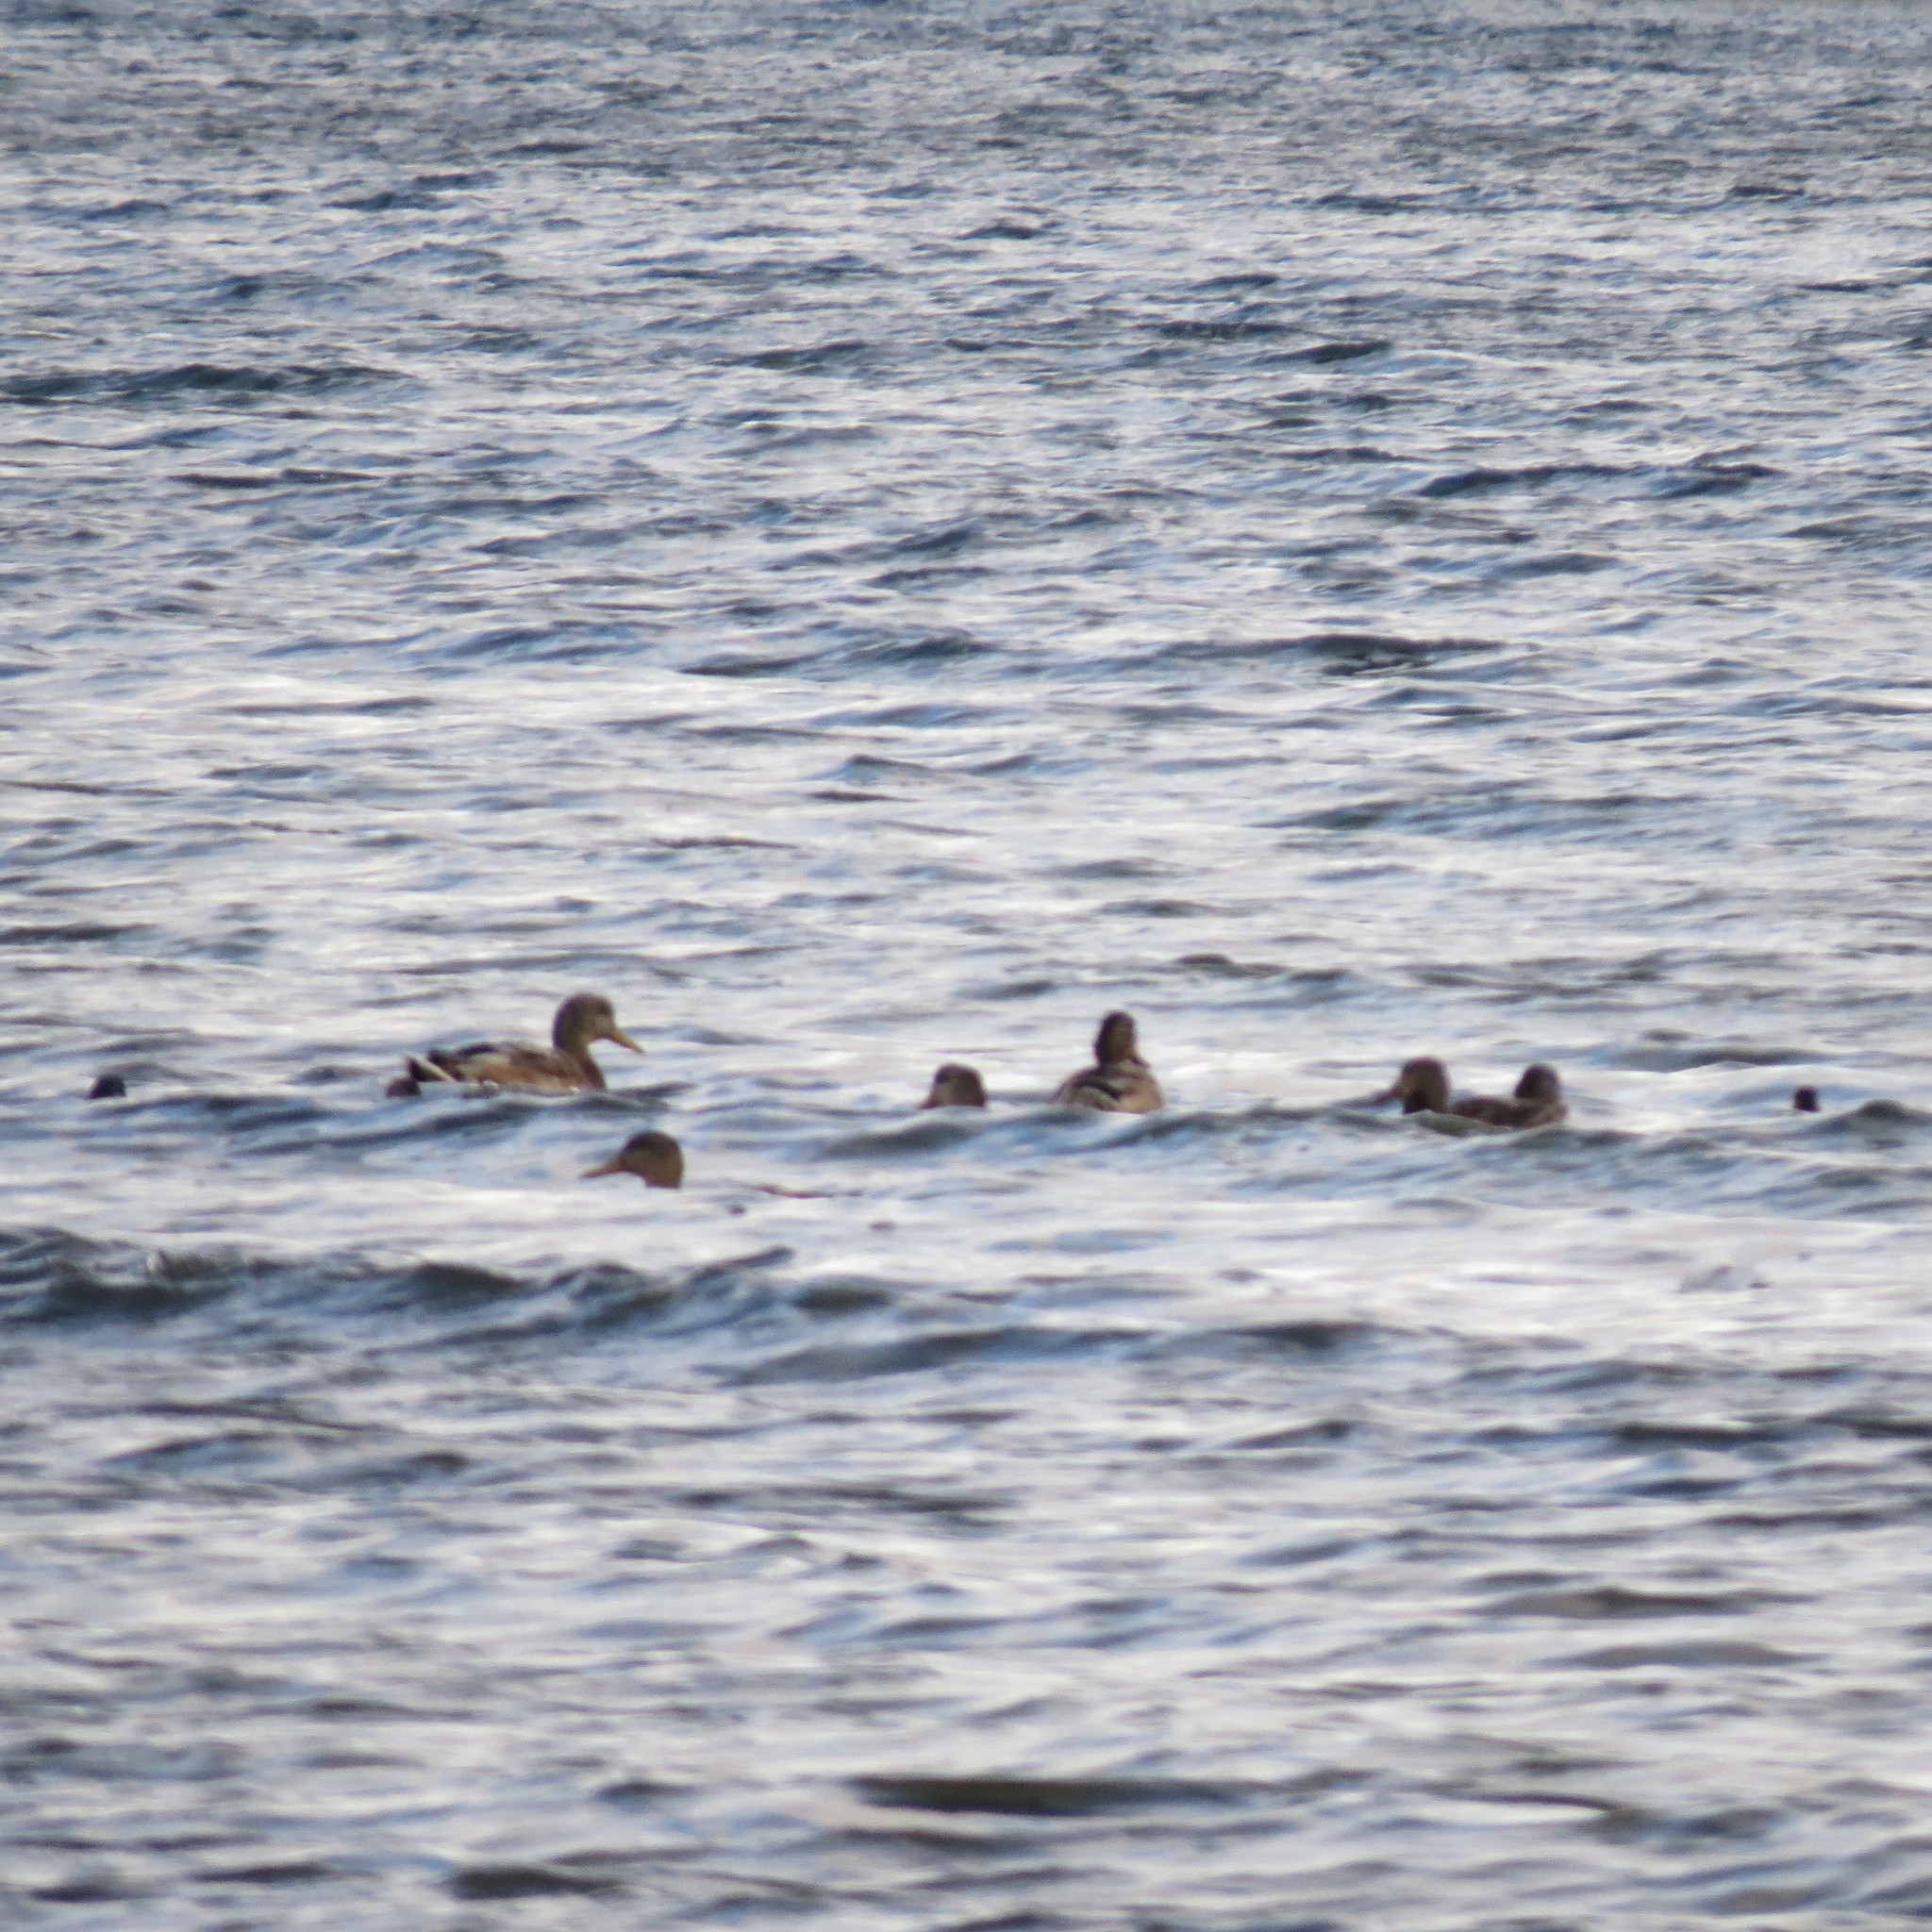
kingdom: Animalia
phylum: Chordata
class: Aves
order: Anseriformes
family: Anatidae
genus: Anas
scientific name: Anas platyrhynchos
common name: Mallard
